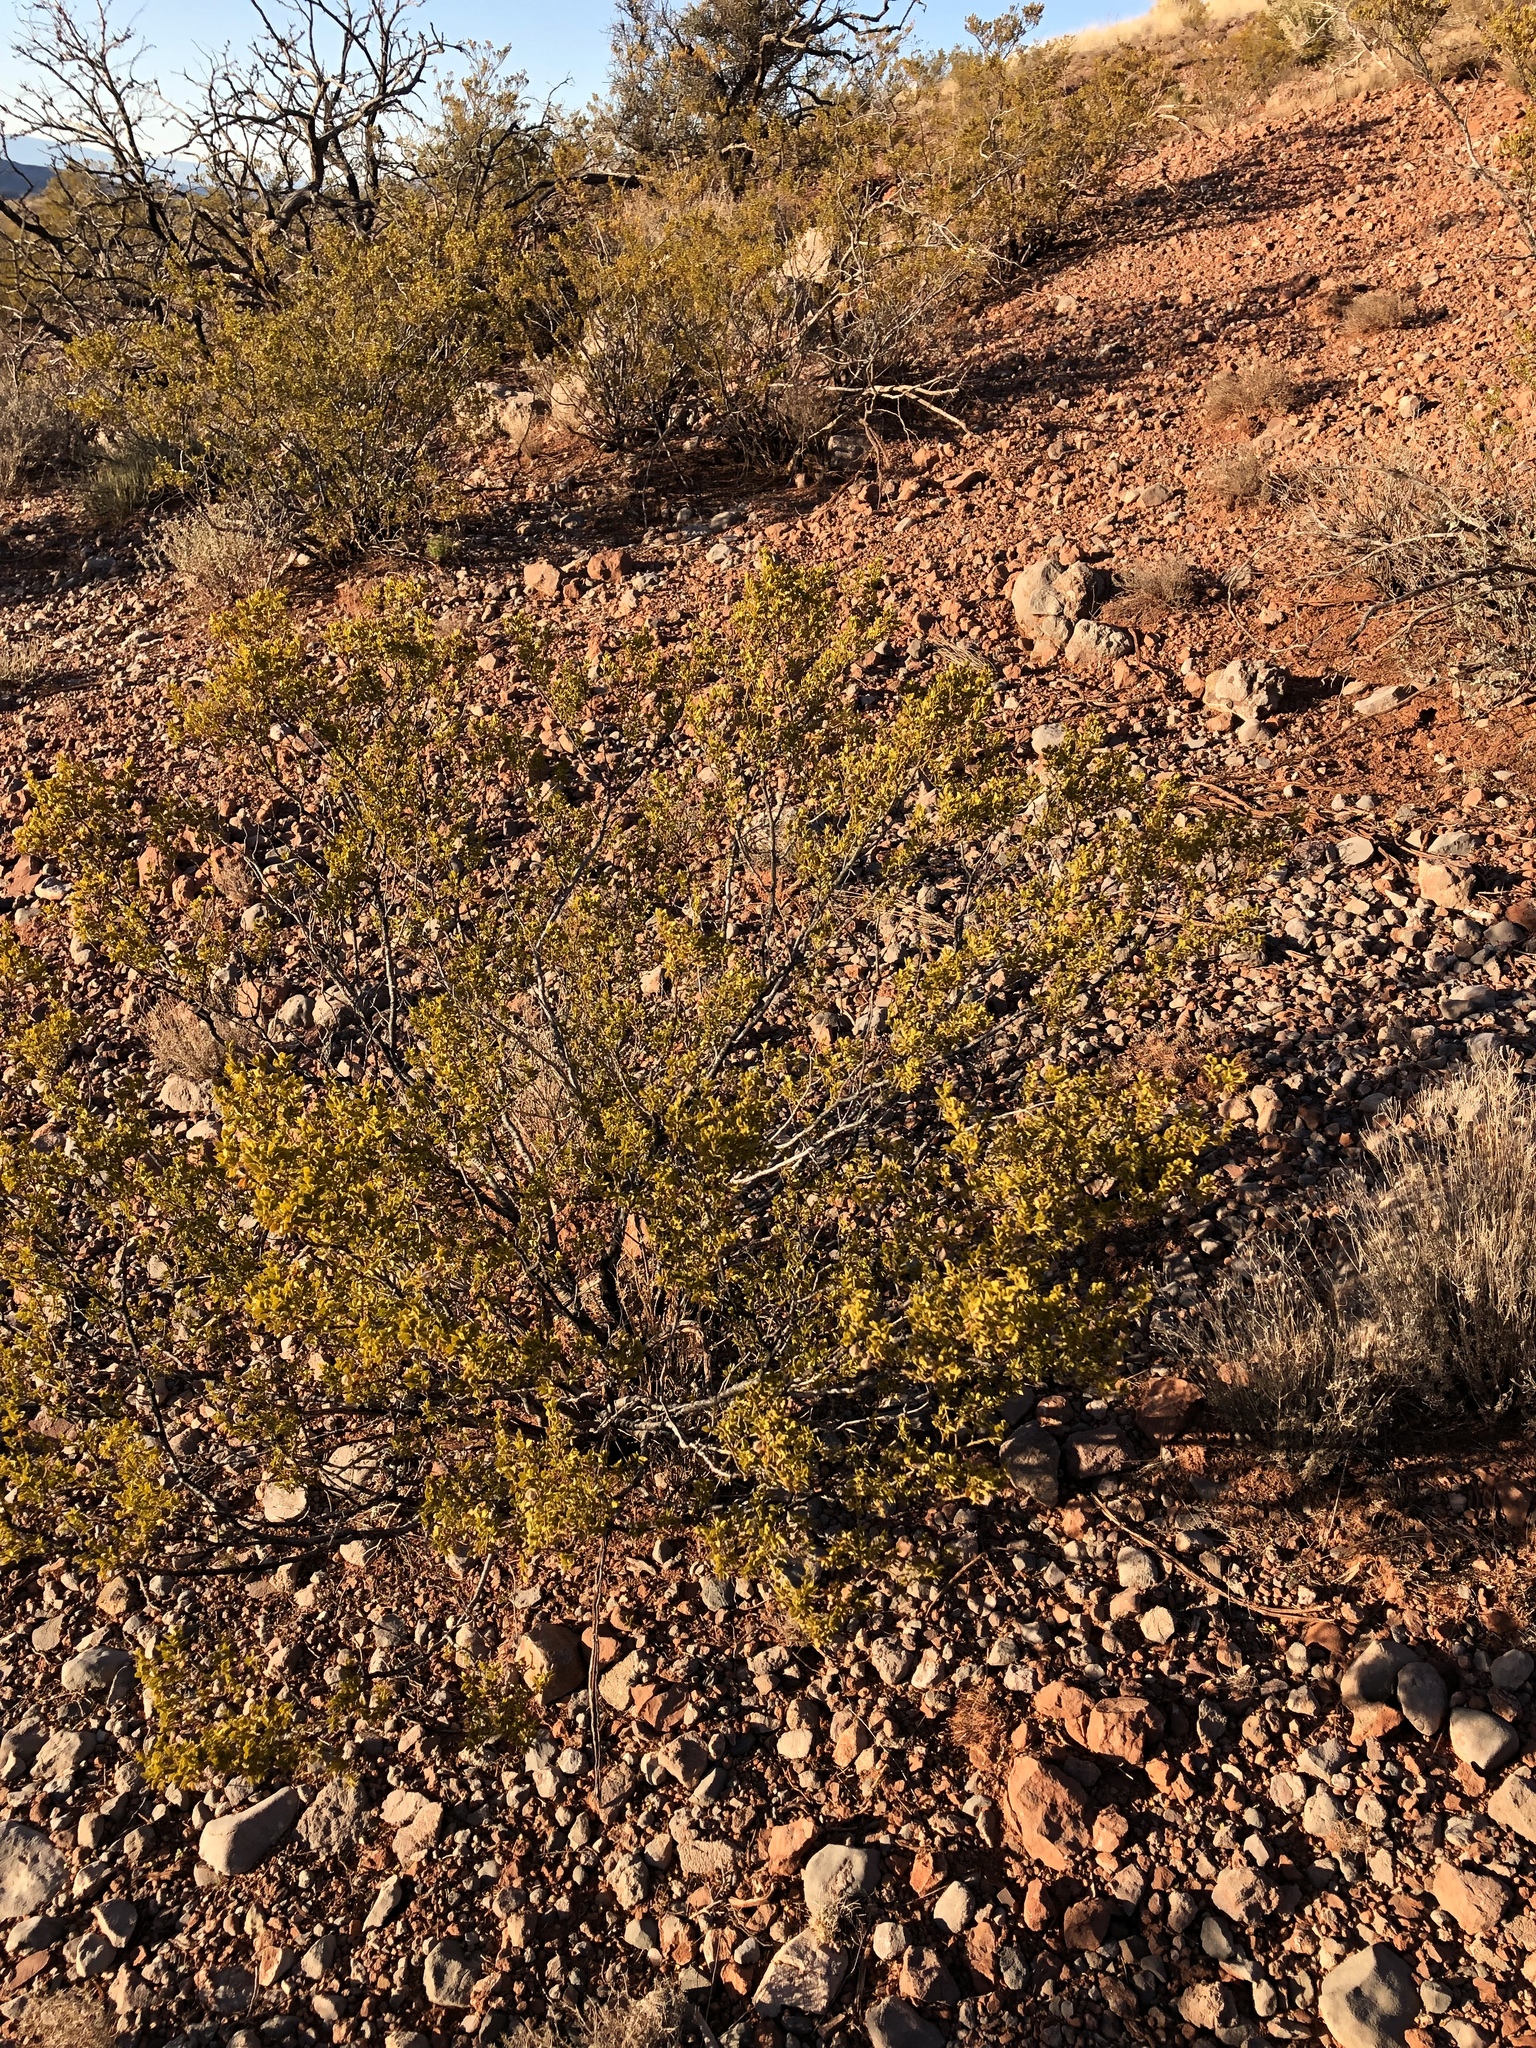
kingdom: Plantae
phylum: Tracheophyta
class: Magnoliopsida
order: Zygophyllales
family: Zygophyllaceae
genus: Larrea
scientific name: Larrea tridentata
